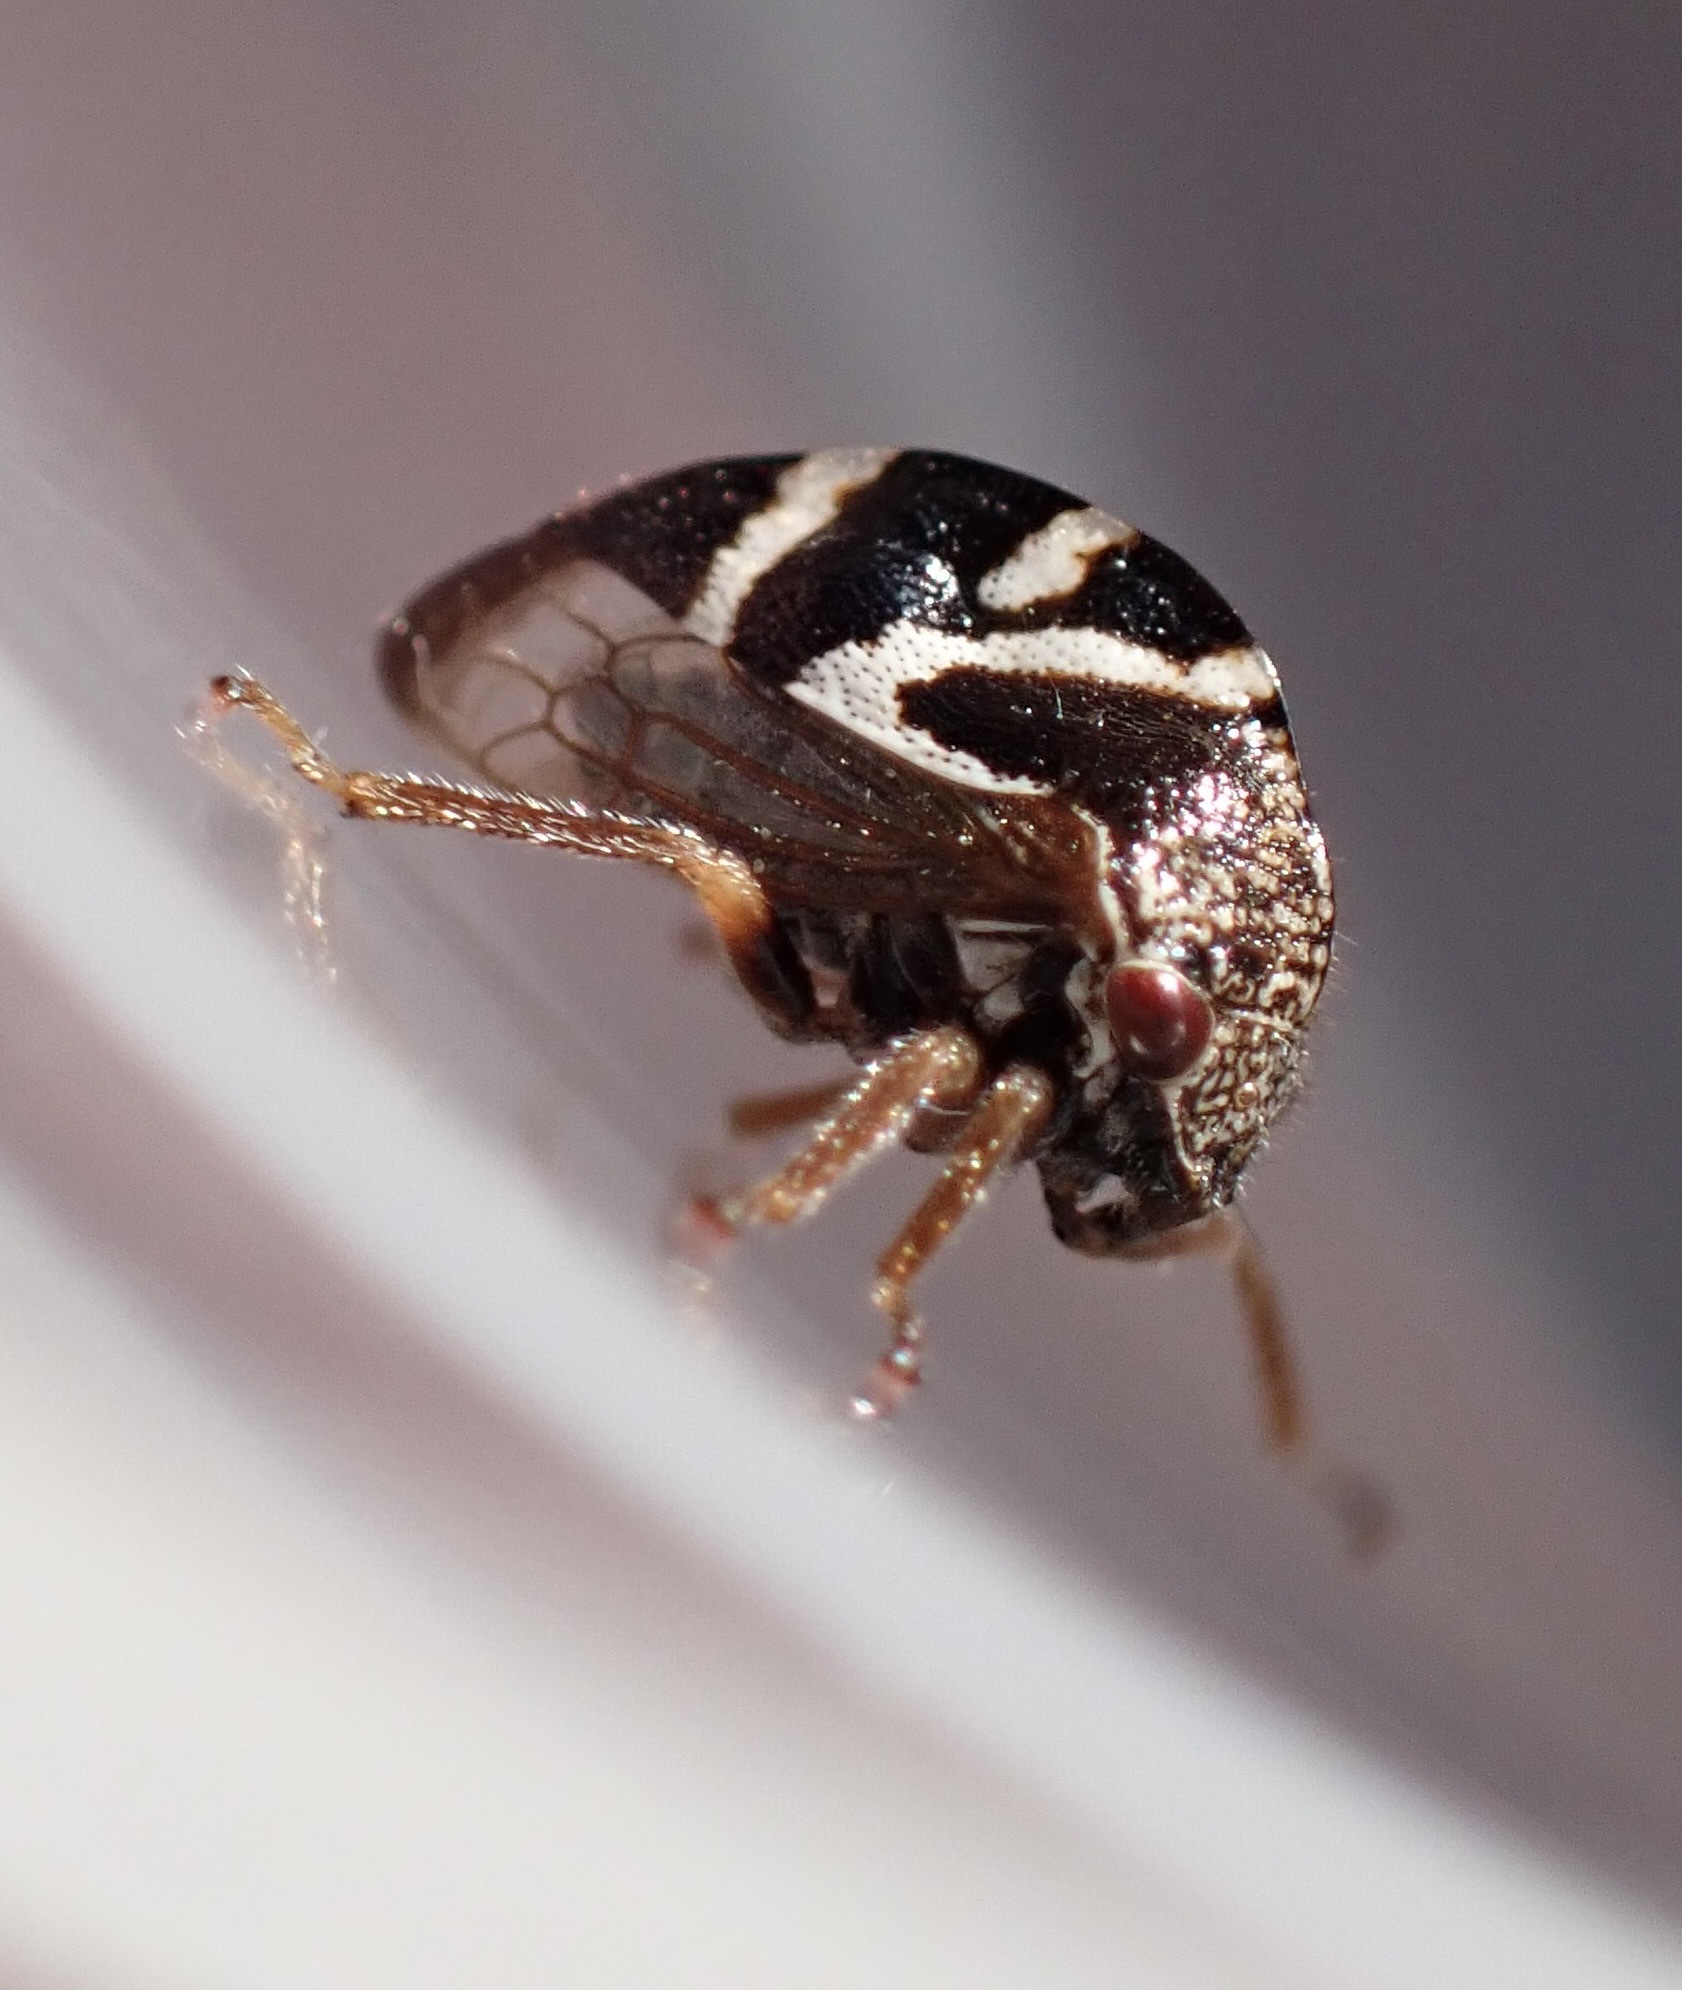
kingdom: Animalia
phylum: Arthropoda
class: Insecta
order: Hemiptera
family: Membracidae
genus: Cyrtolobus
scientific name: Cyrtolobus vanduzii
